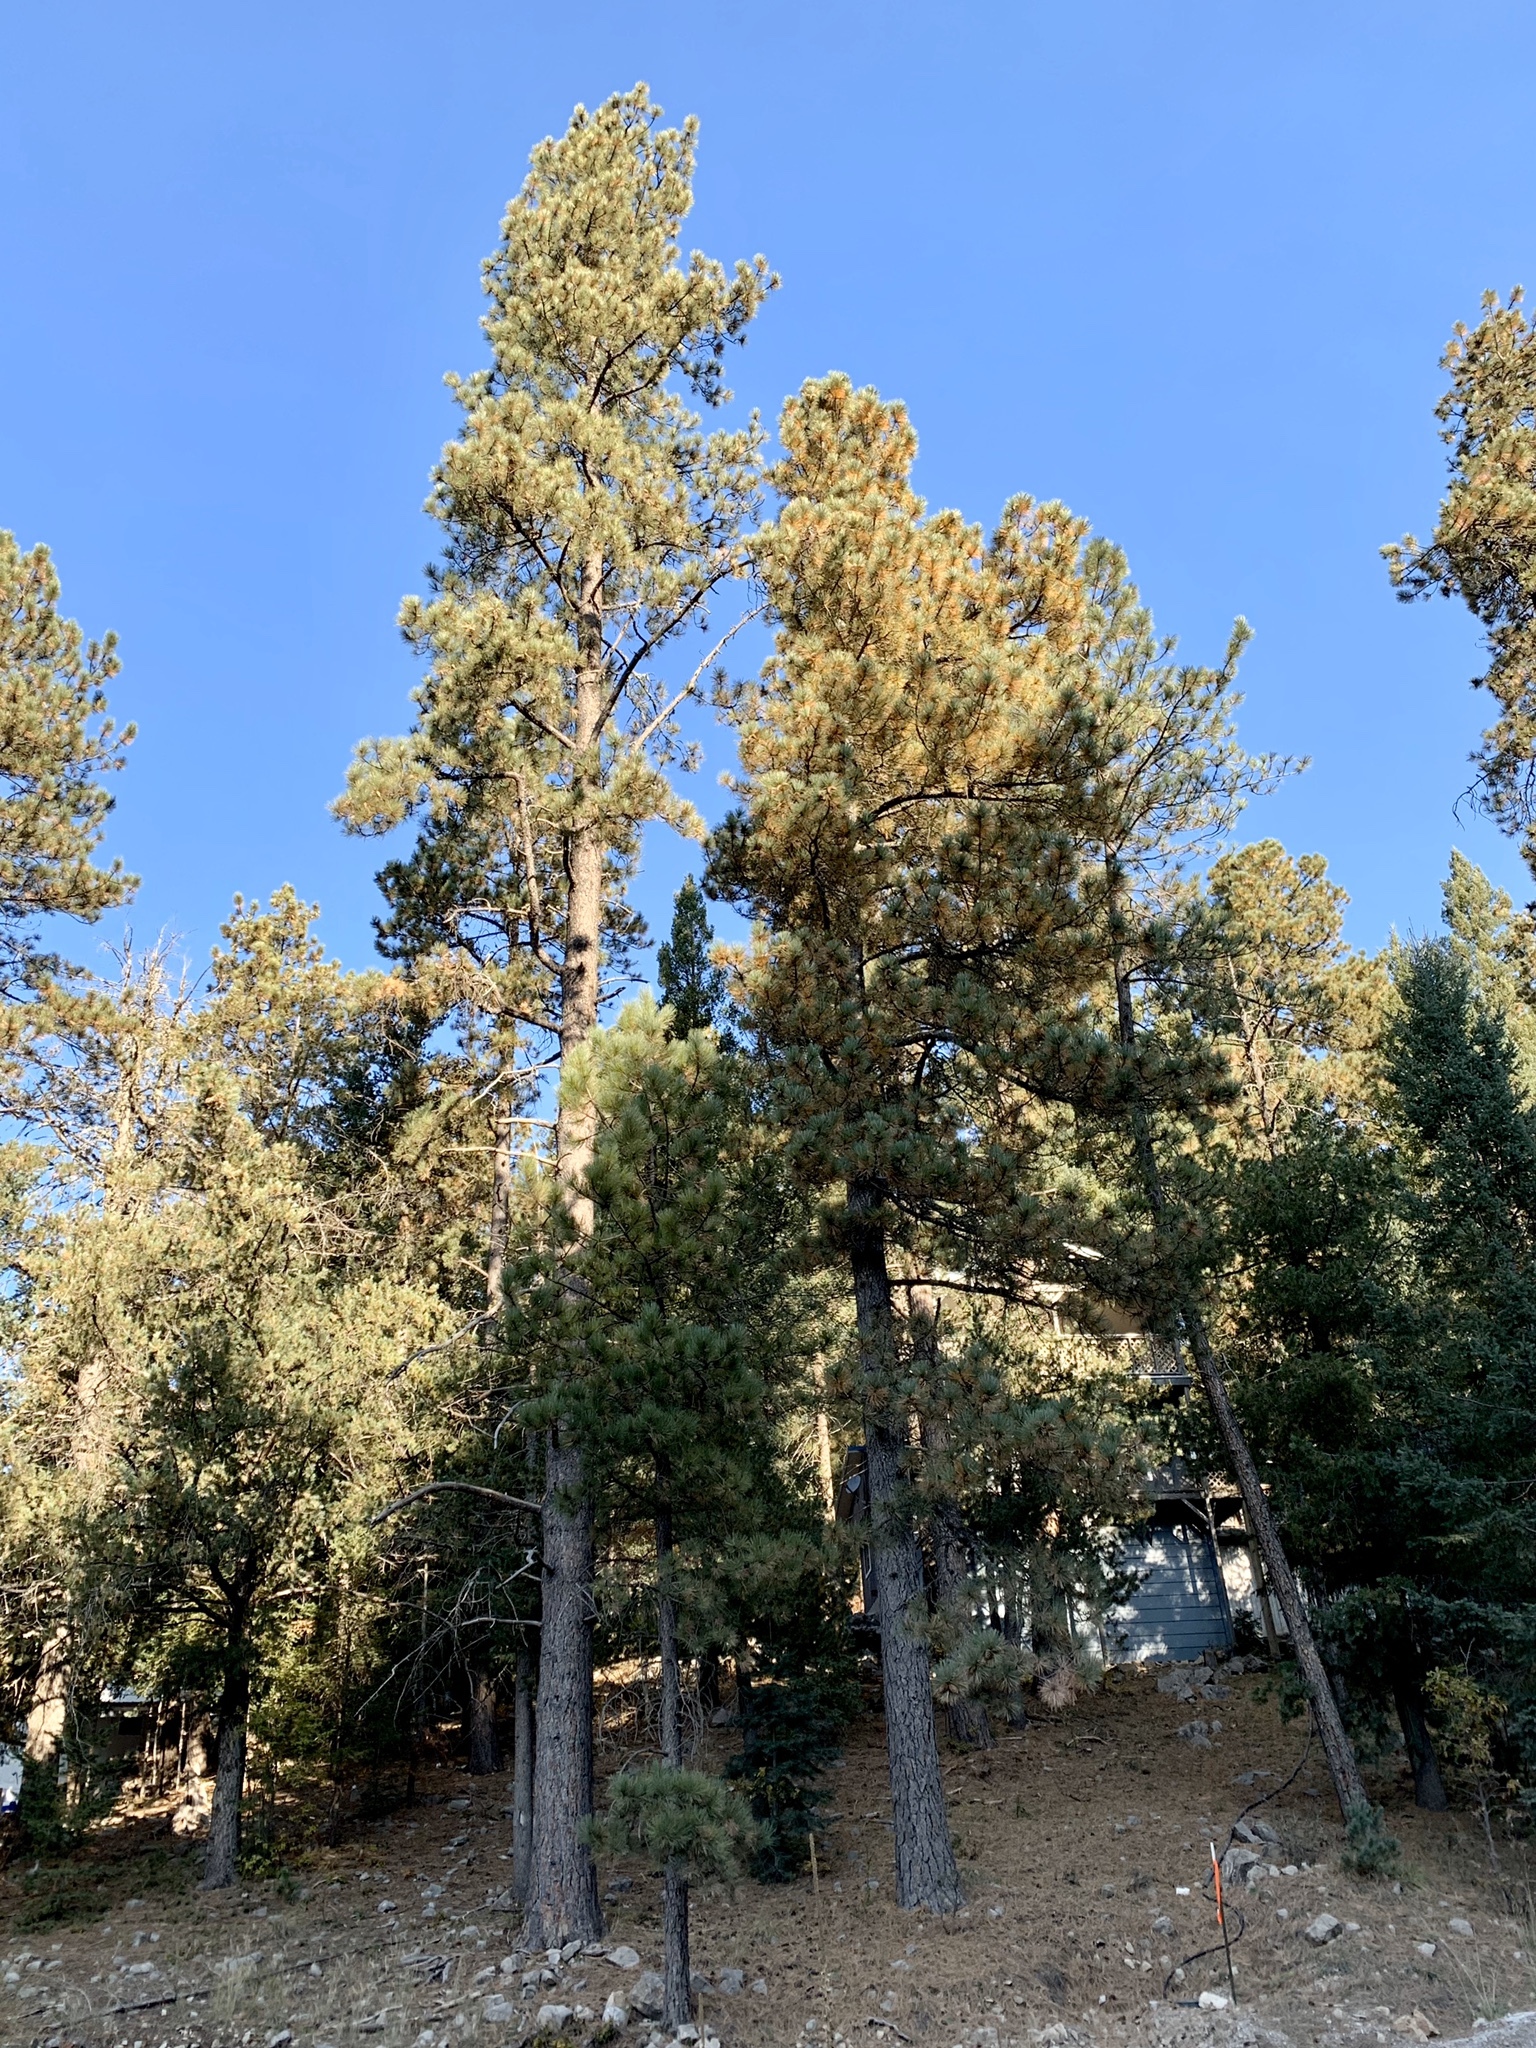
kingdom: Plantae
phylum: Tracheophyta
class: Pinopsida
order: Pinales
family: Pinaceae
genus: Pinus
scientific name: Pinus ponderosa
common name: Western yellow-pine
